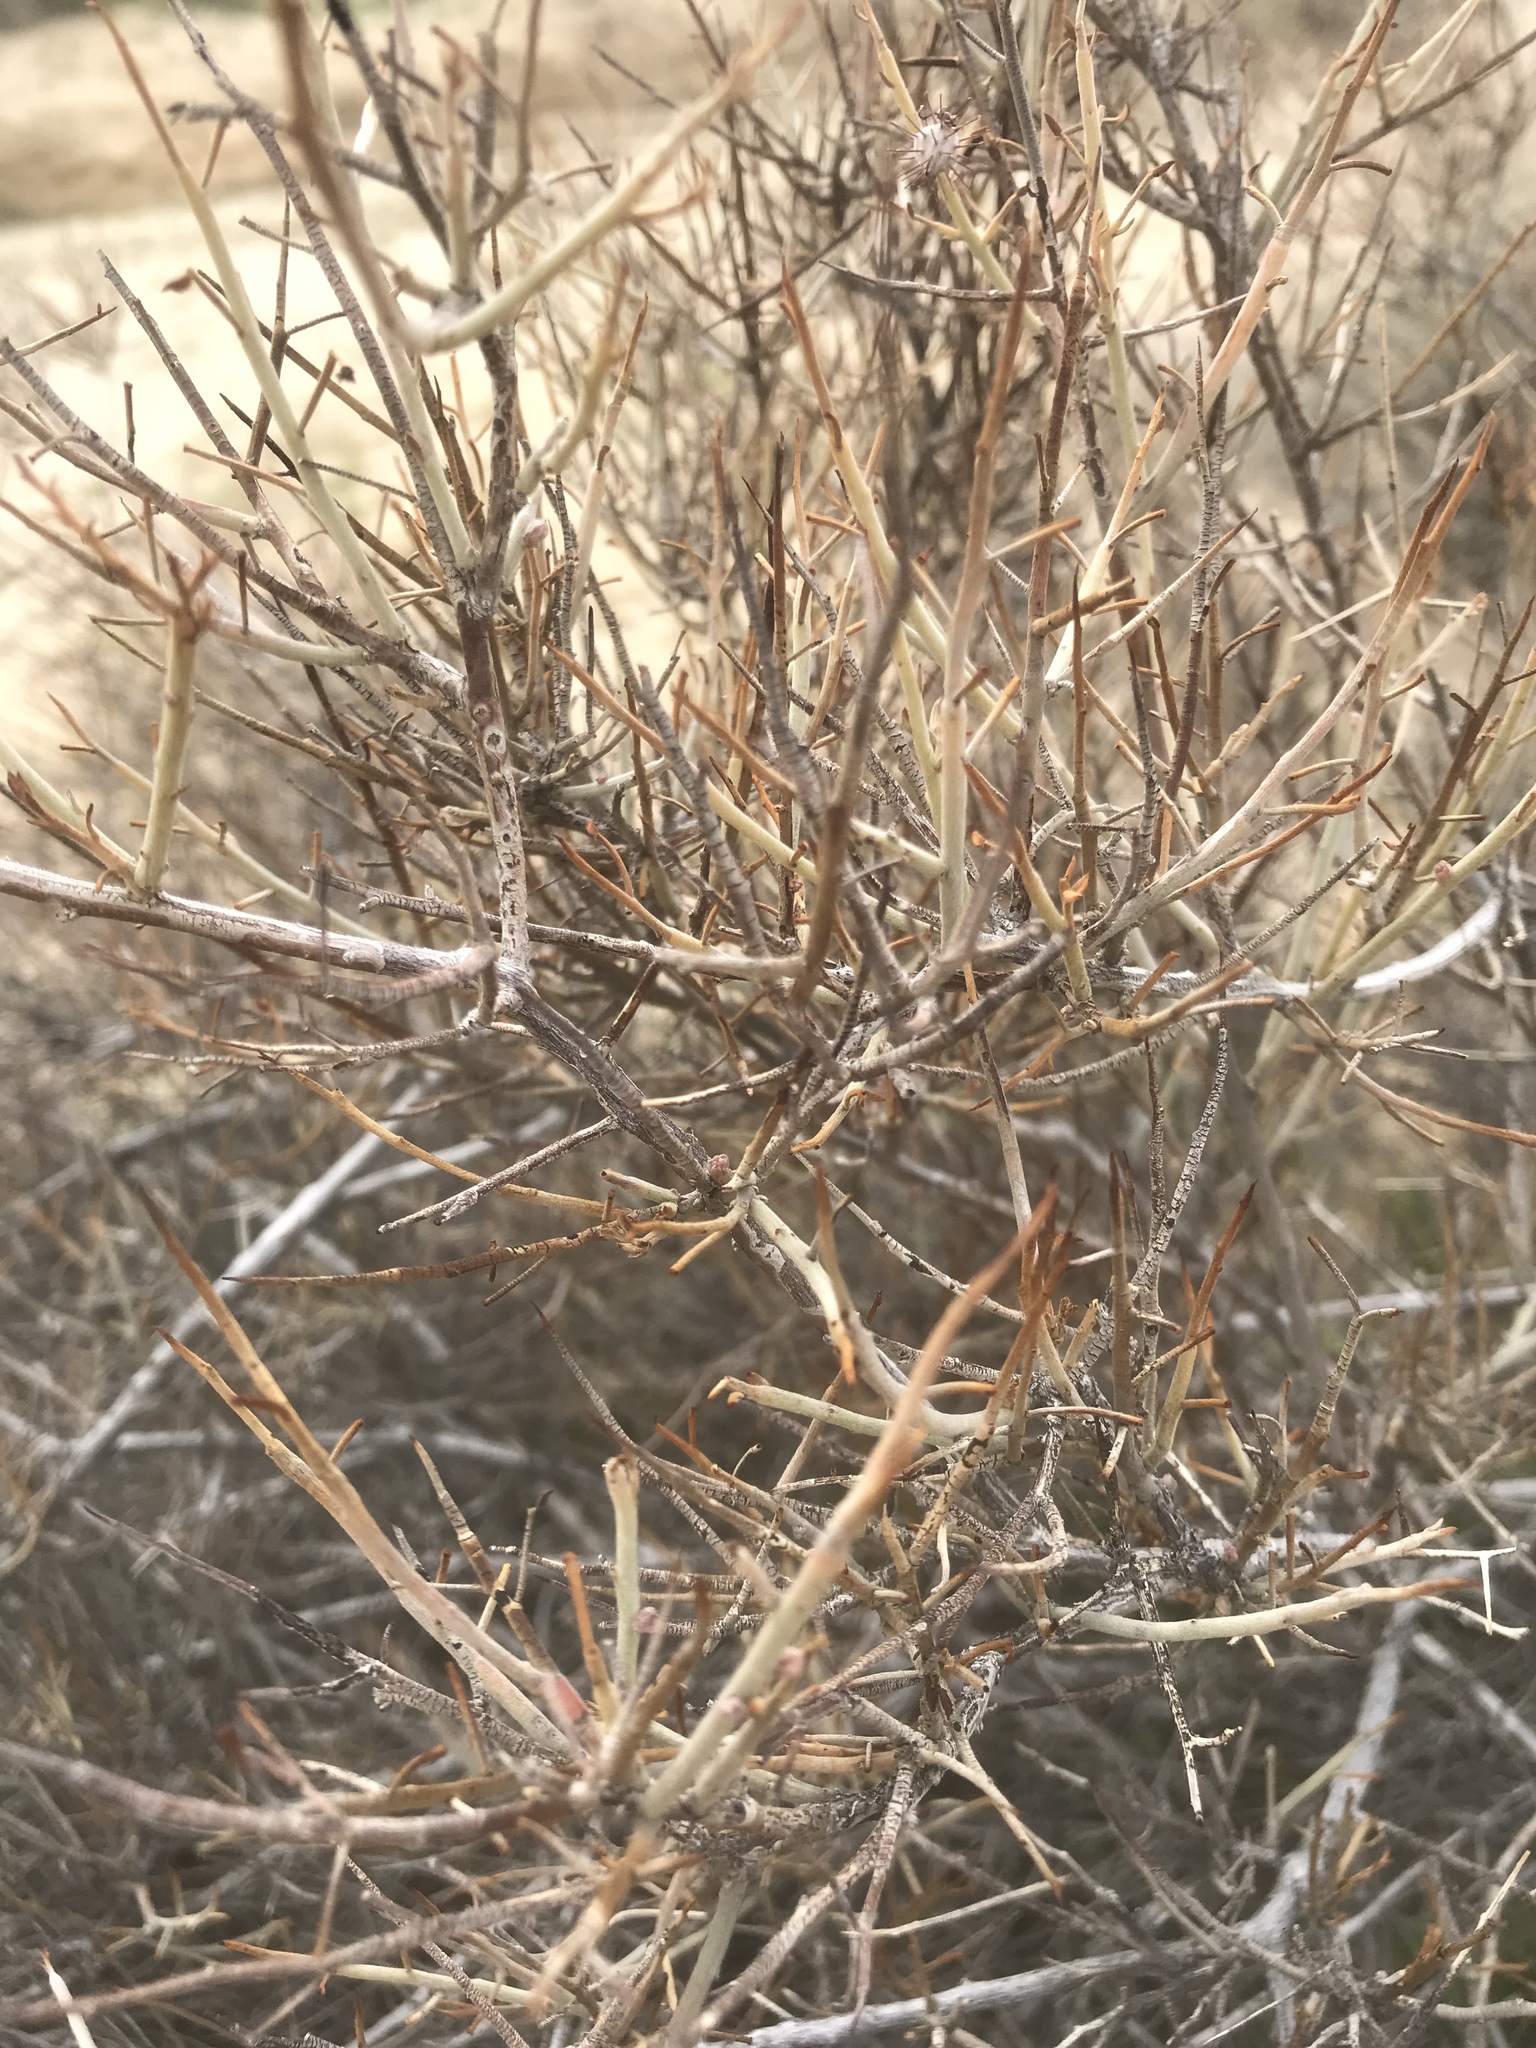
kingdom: Plantae
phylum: Tracheophyta
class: Magnoliopsida
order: Zygophyllales
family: Krameriaceae
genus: Krameria
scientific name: Krameria bicolor
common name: White ratany
